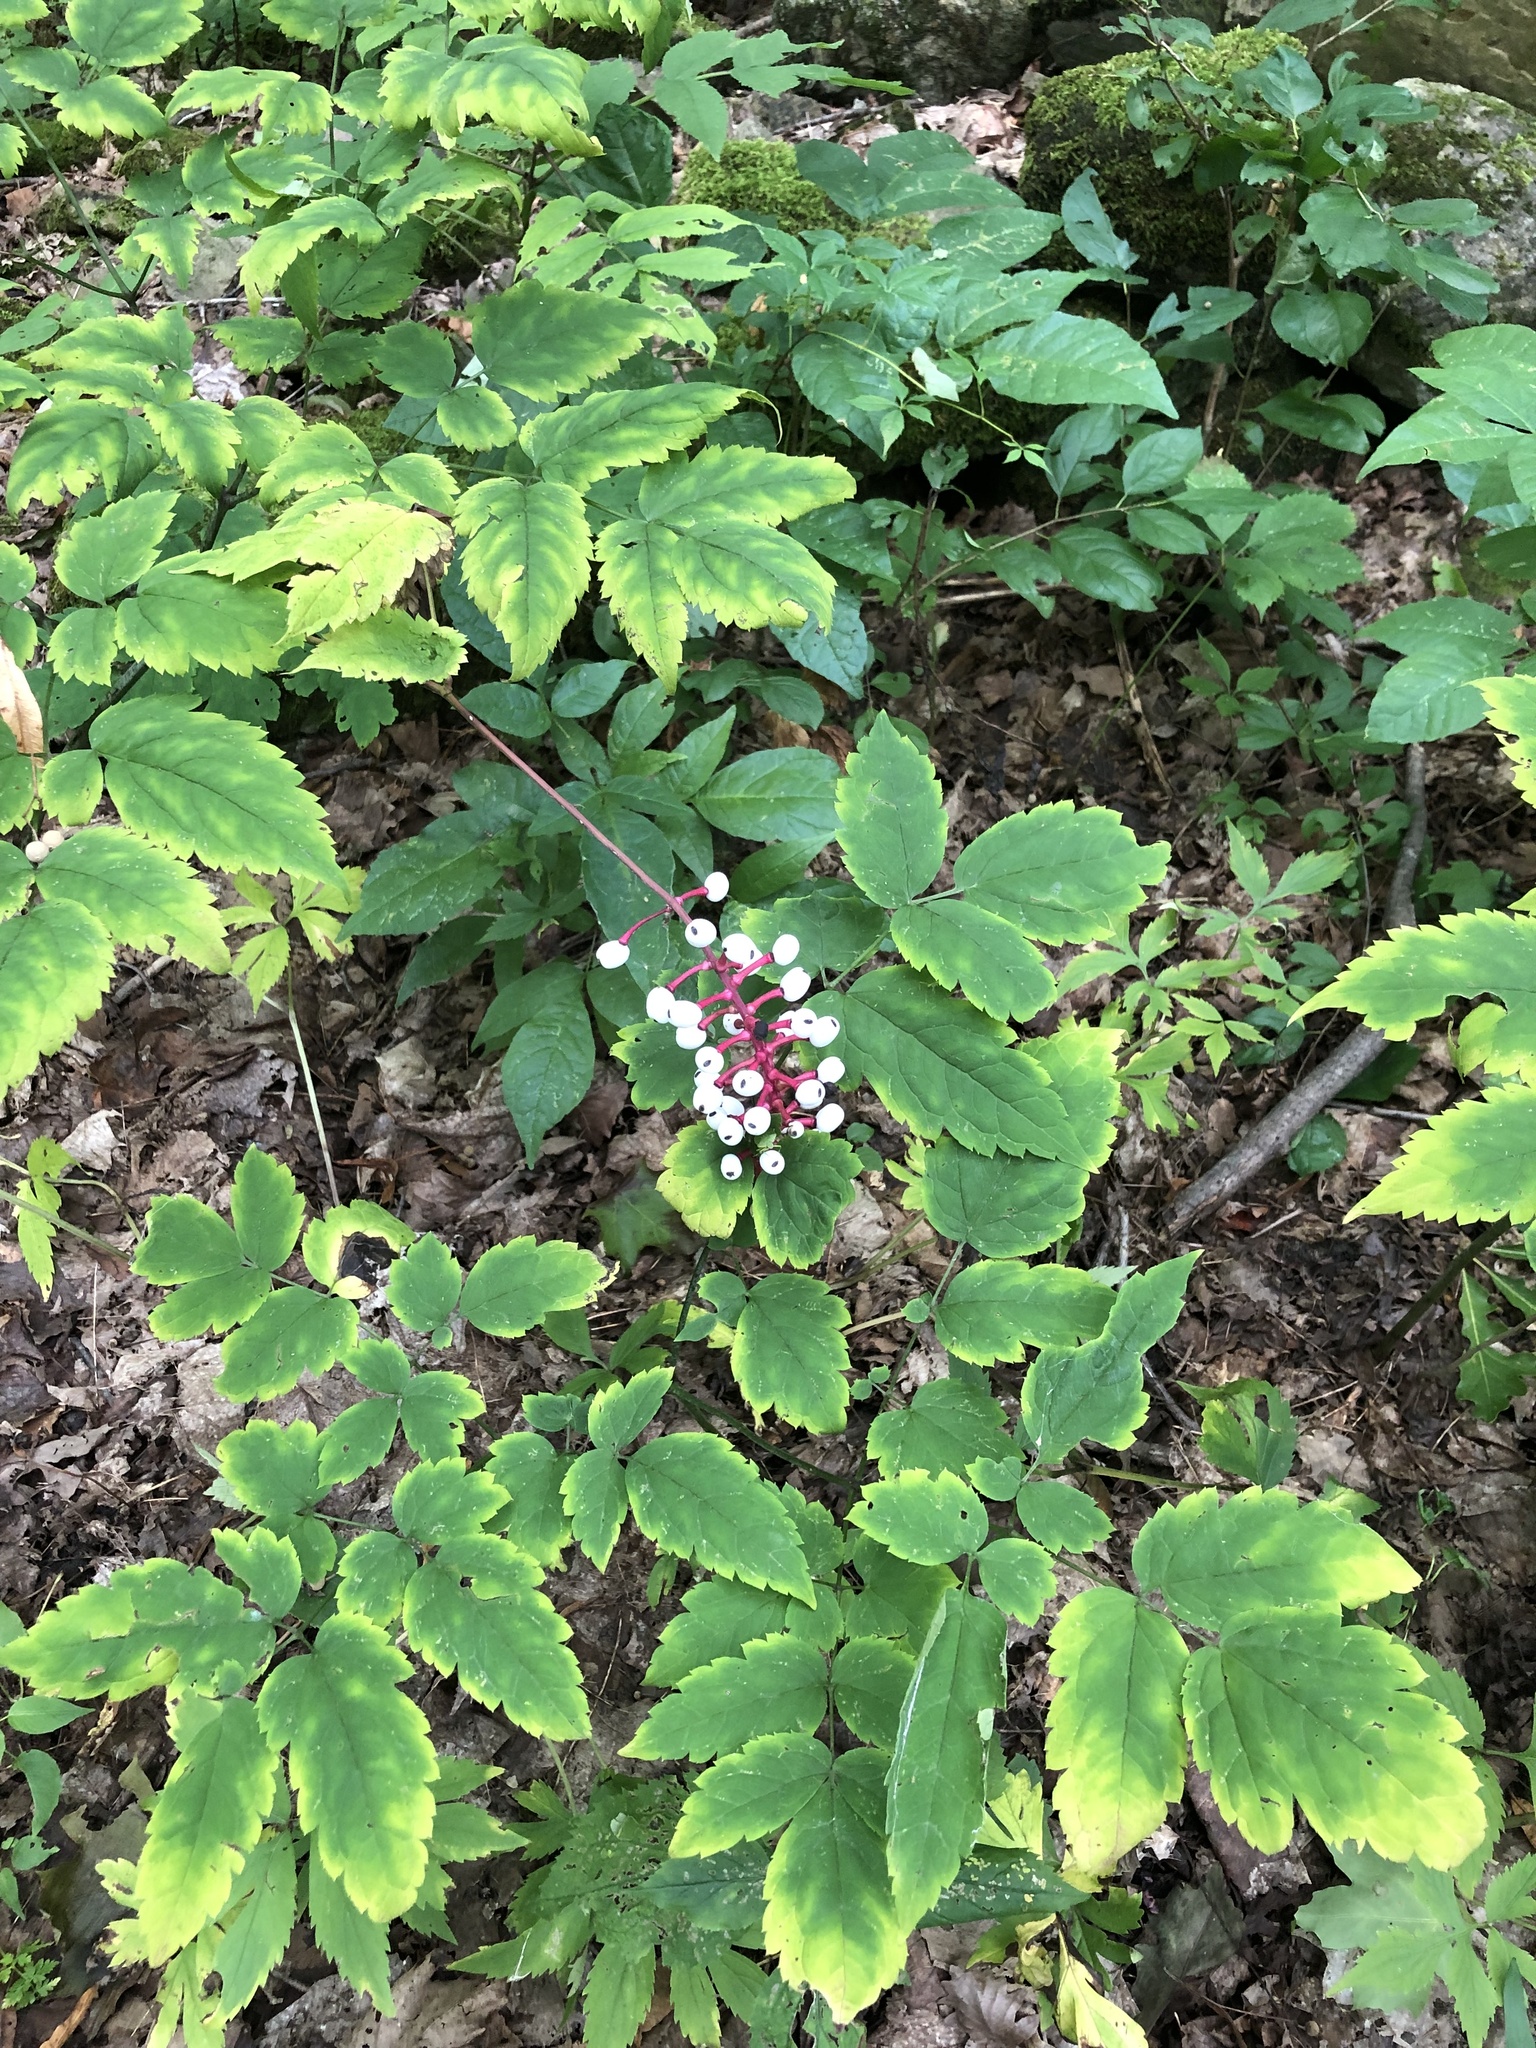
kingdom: Plantae
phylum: Tracheophyta
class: Magnoliopsida
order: Ranunculales
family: Ranunculaceae
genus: Actaea
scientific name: Actaea pachypoda
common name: Doll's-eyes
